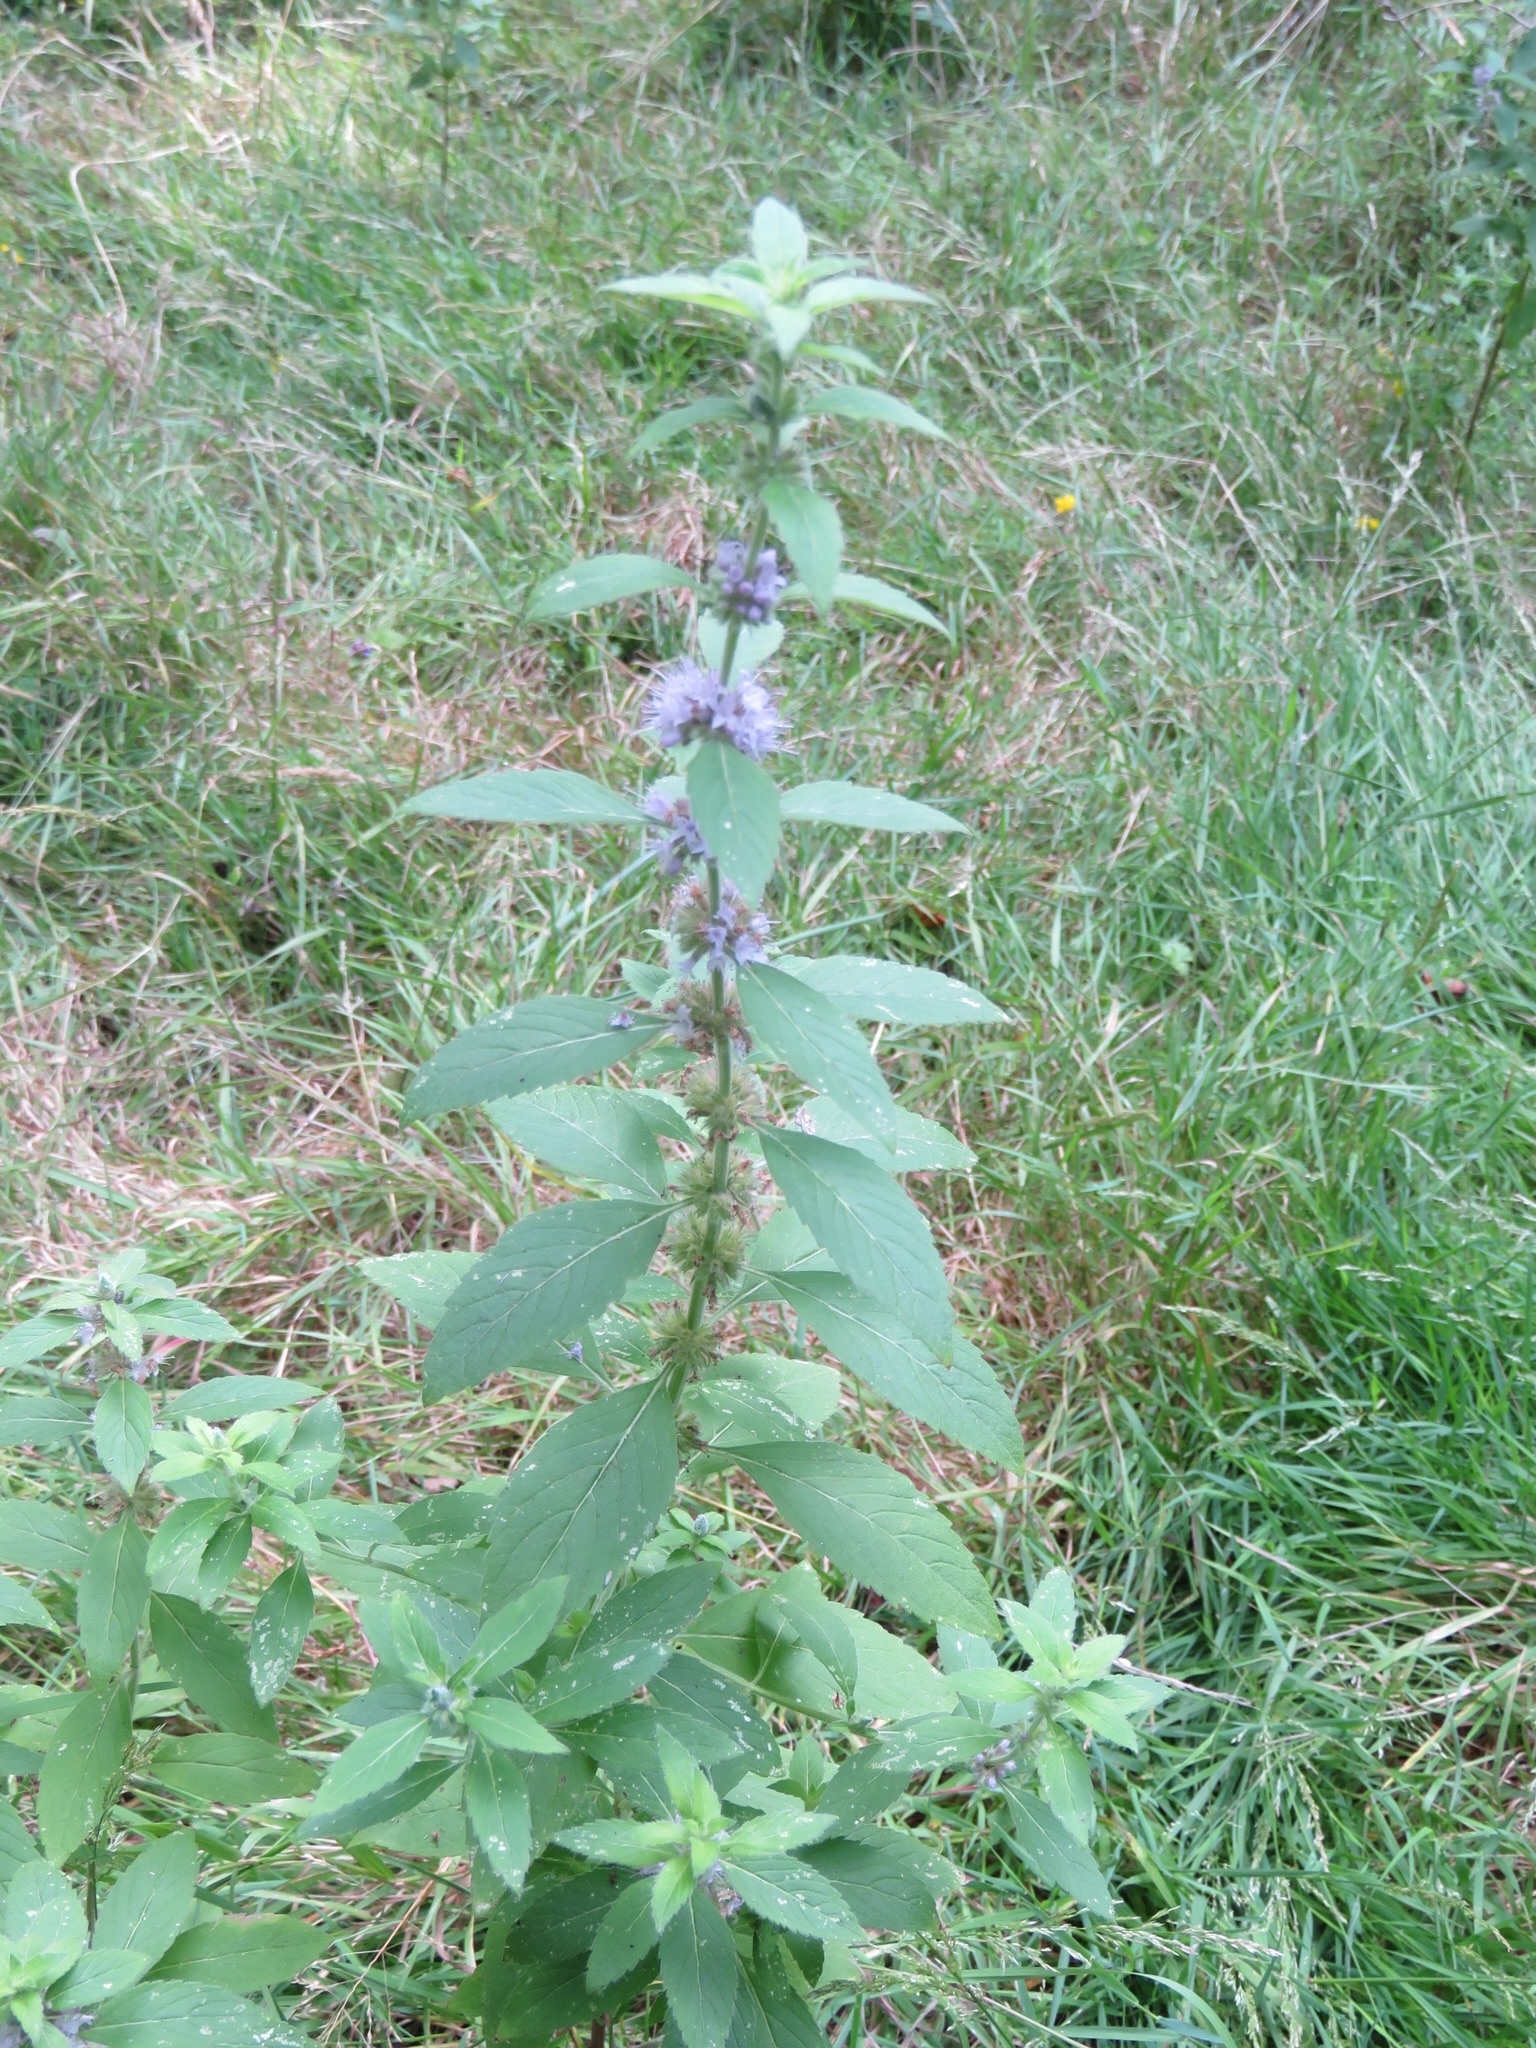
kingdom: Plantae
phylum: Tracheophyta
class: Magnoliopsida
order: Lamiales
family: Lamiaceae
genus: Mentha
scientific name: Mentha canadensis
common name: American corn mint
